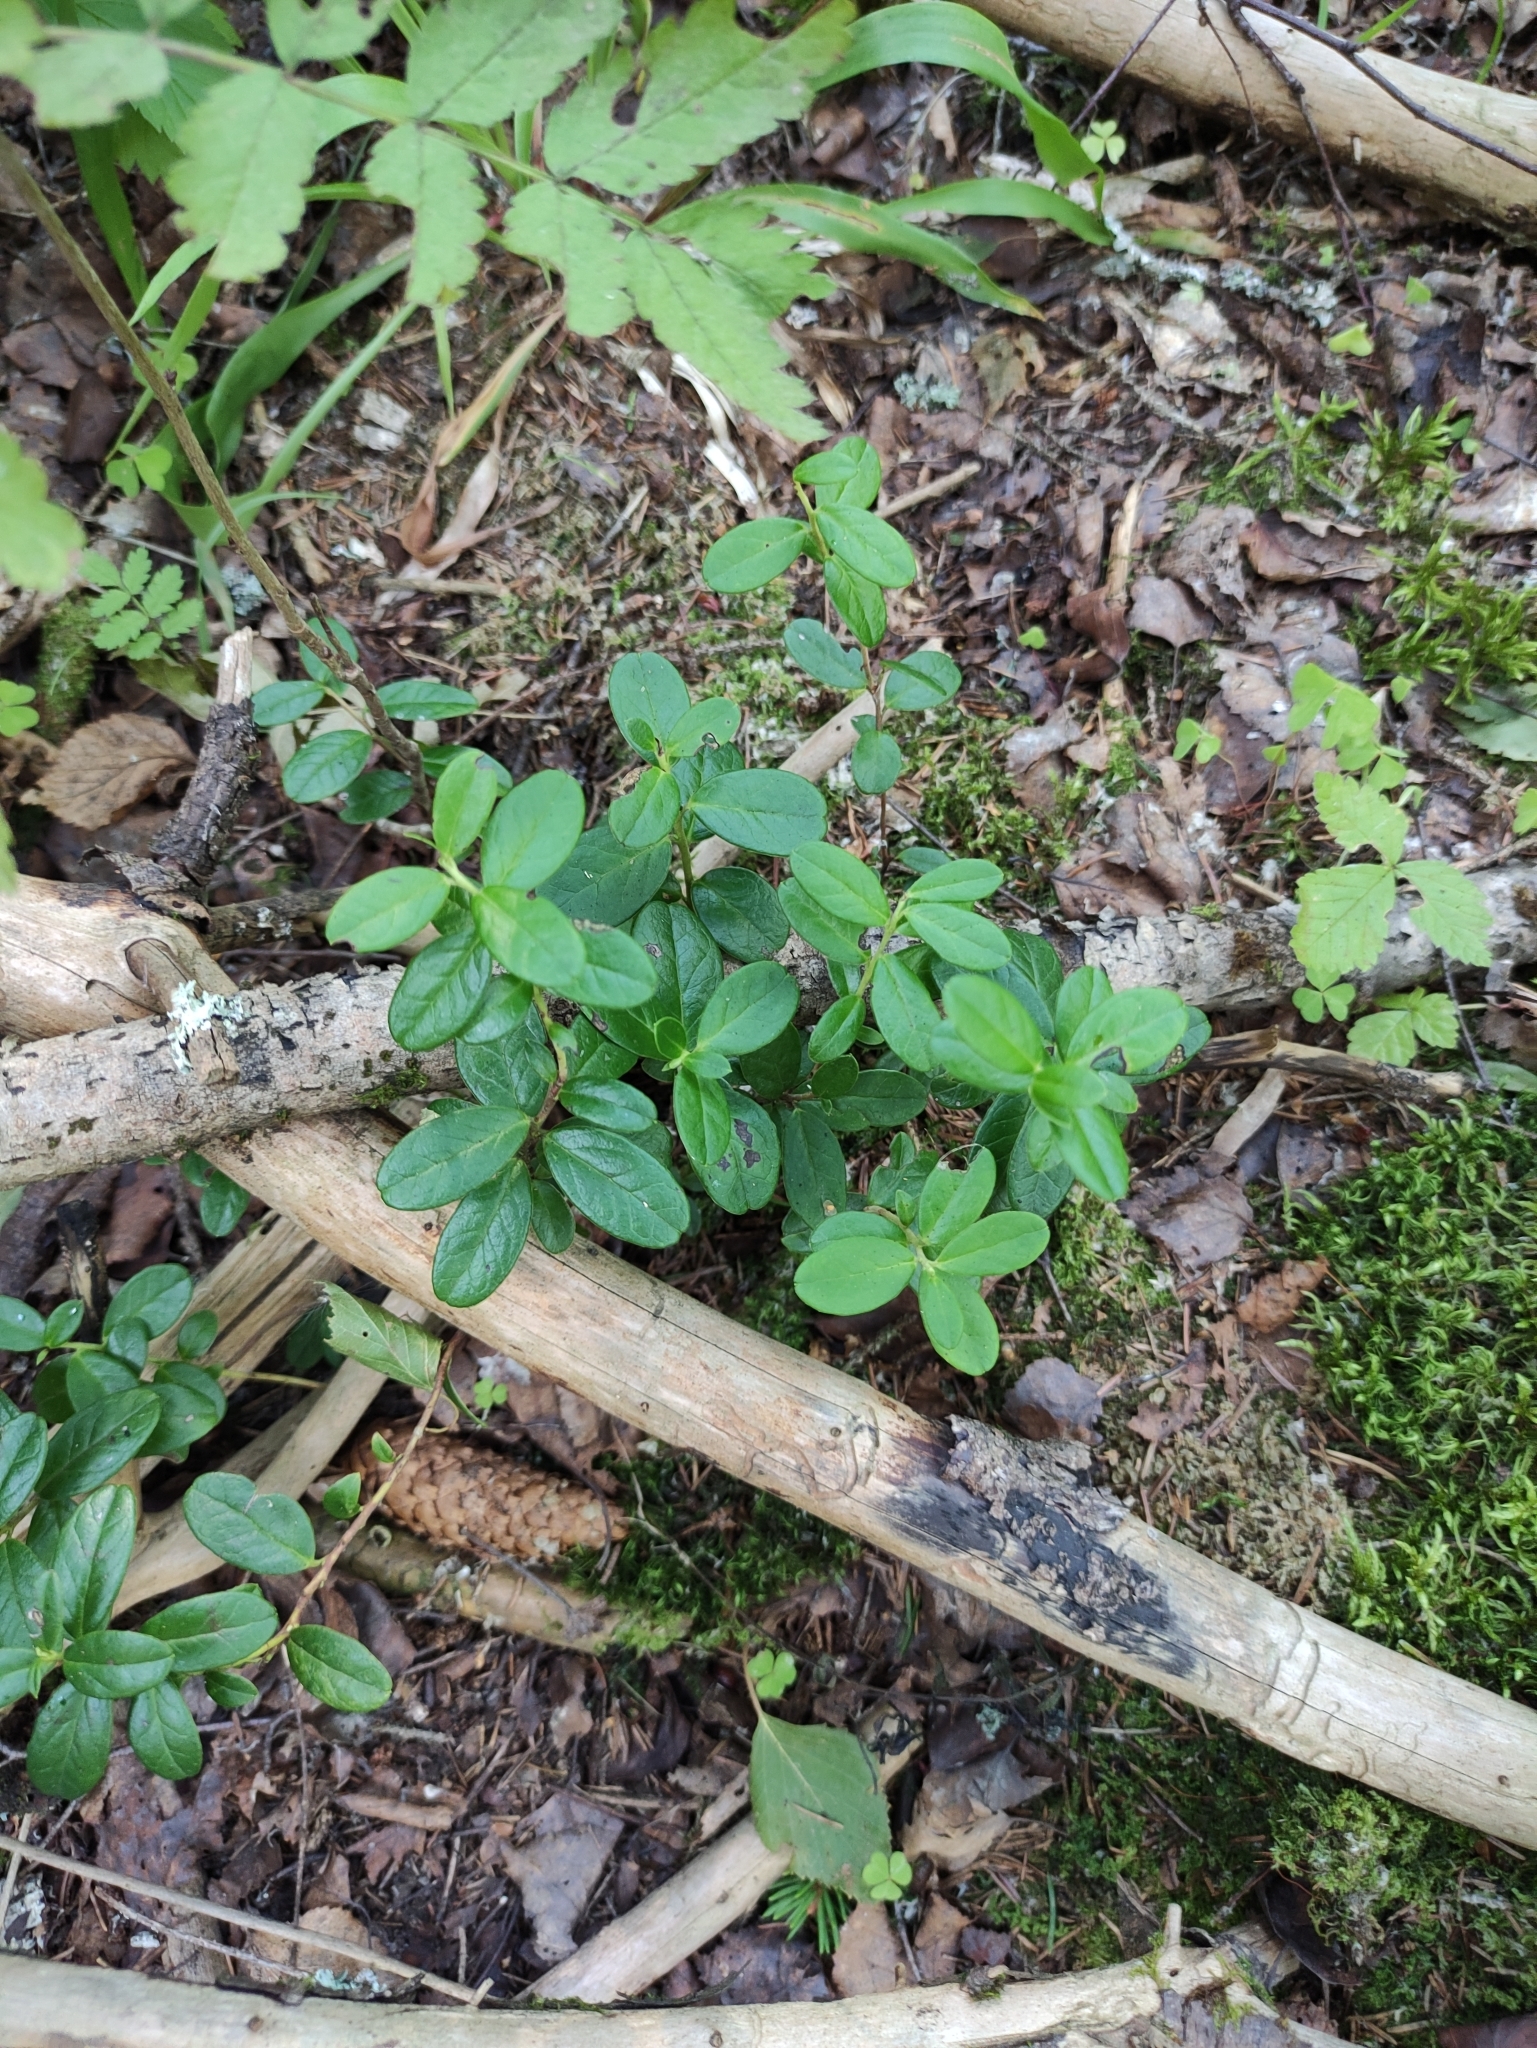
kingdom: Plantae
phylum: Tracheophyta
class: Magnoliopsida
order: Ericales
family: Ericaceae
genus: Vaccinium
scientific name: Vaccinium vitis-idaea
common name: Cowberry
